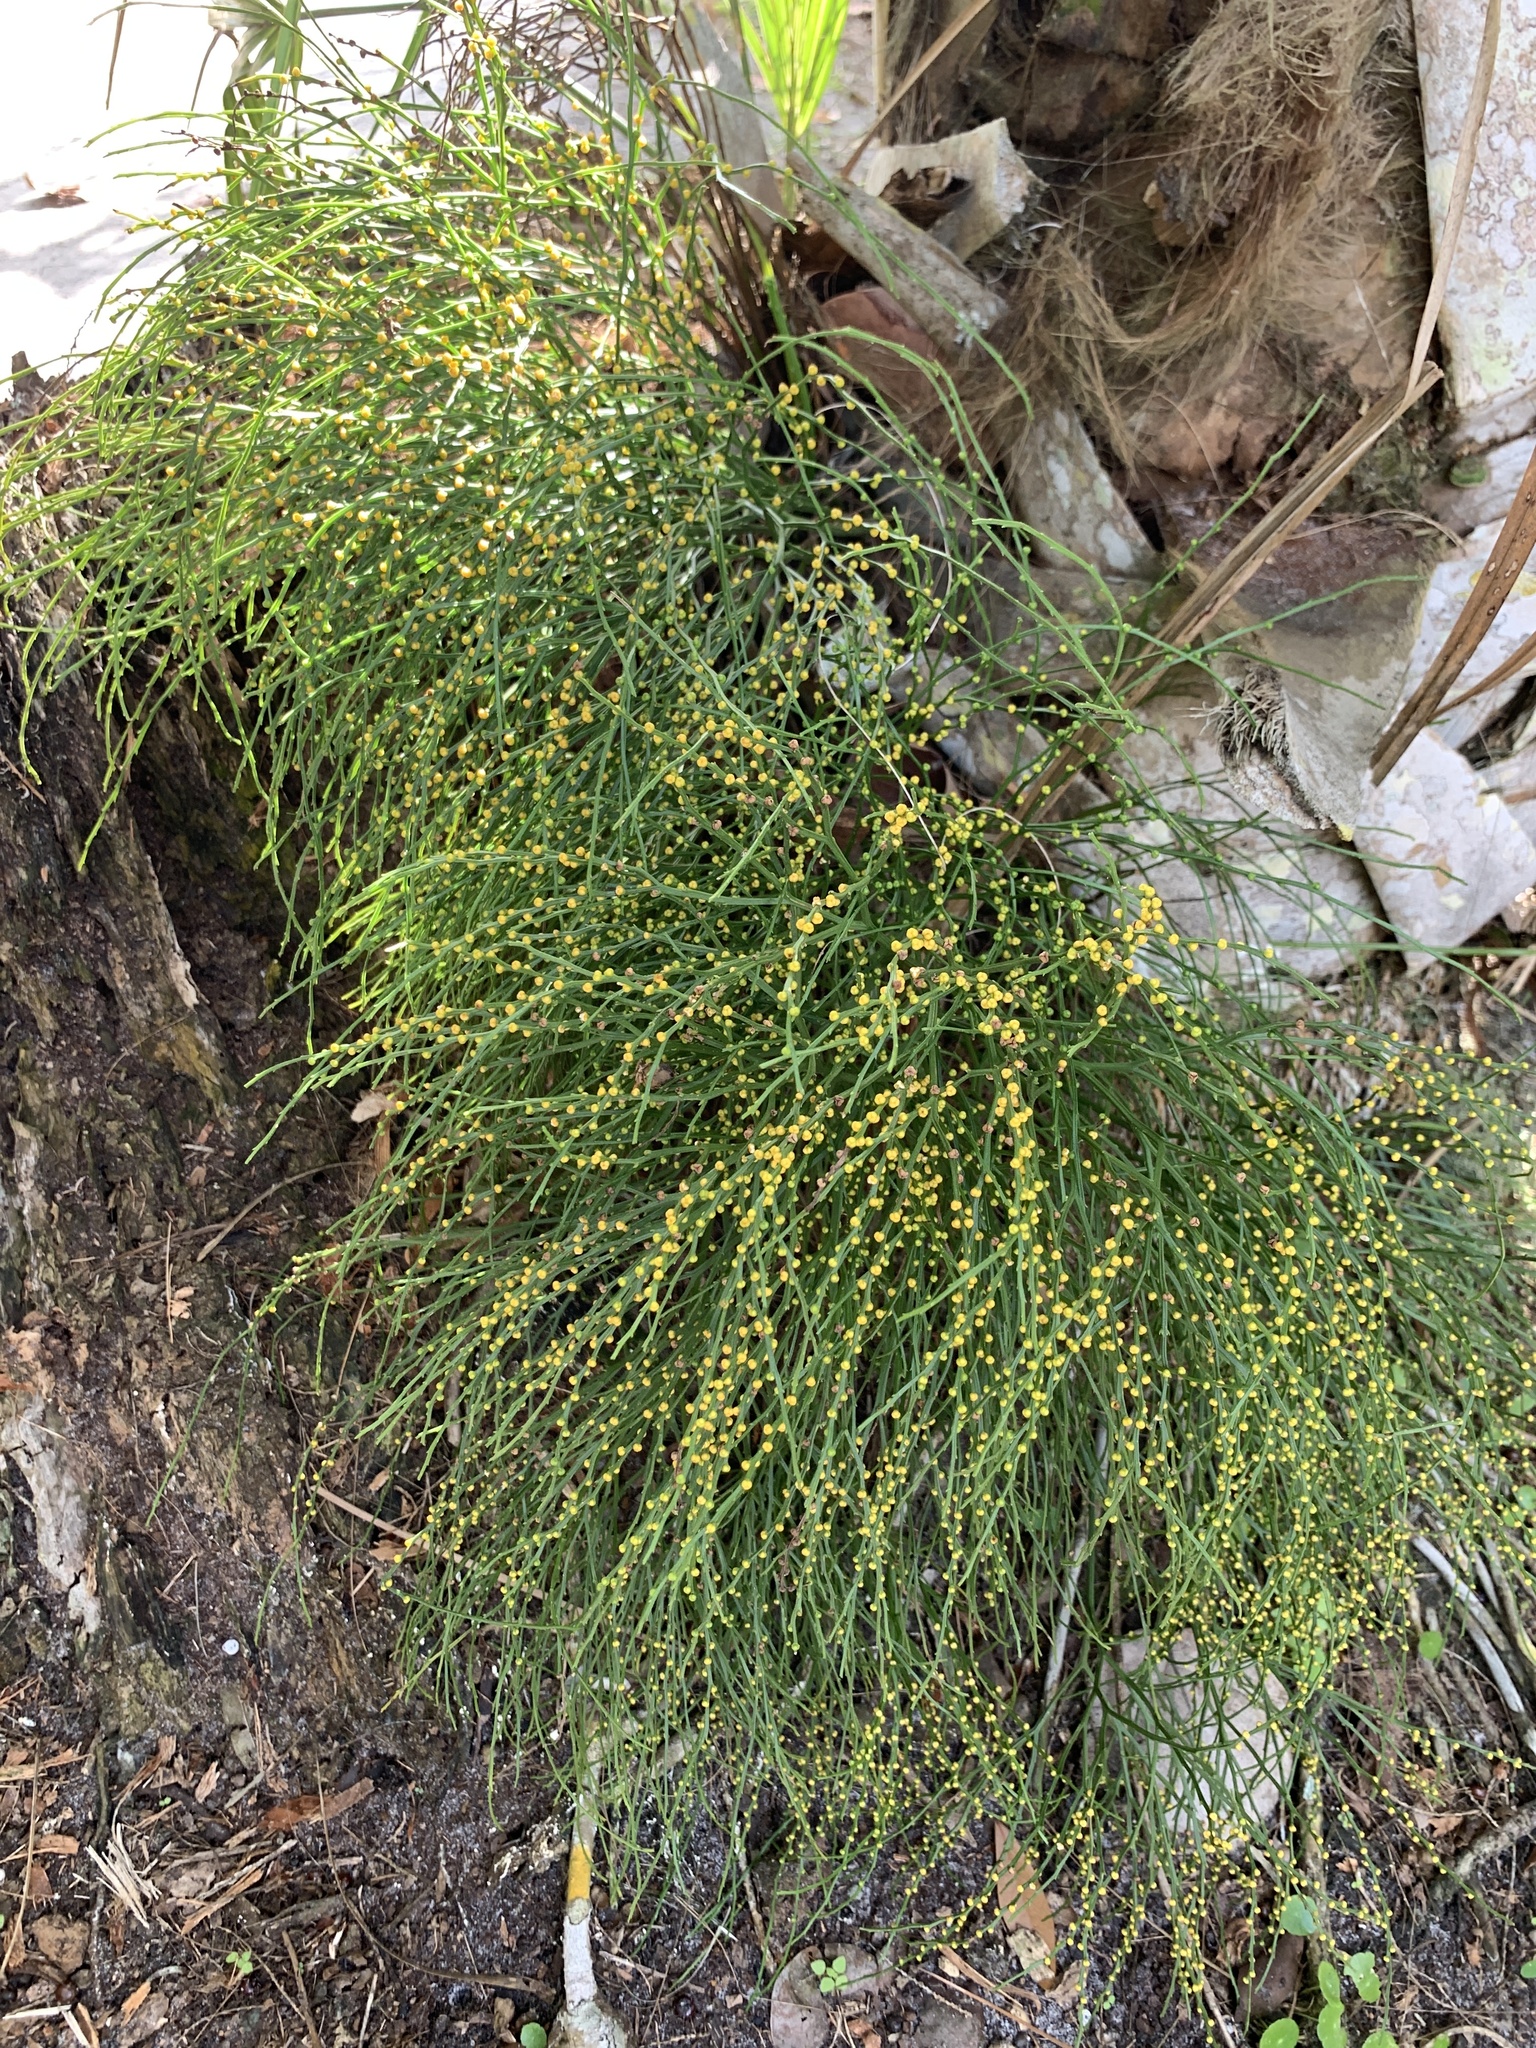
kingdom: Plantae
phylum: Tracheophyta
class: Polypodiopsida
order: Psilotales
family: Psilotaceae
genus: Psilotum
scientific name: Psilotum nudum
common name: Skeleton fork fern
